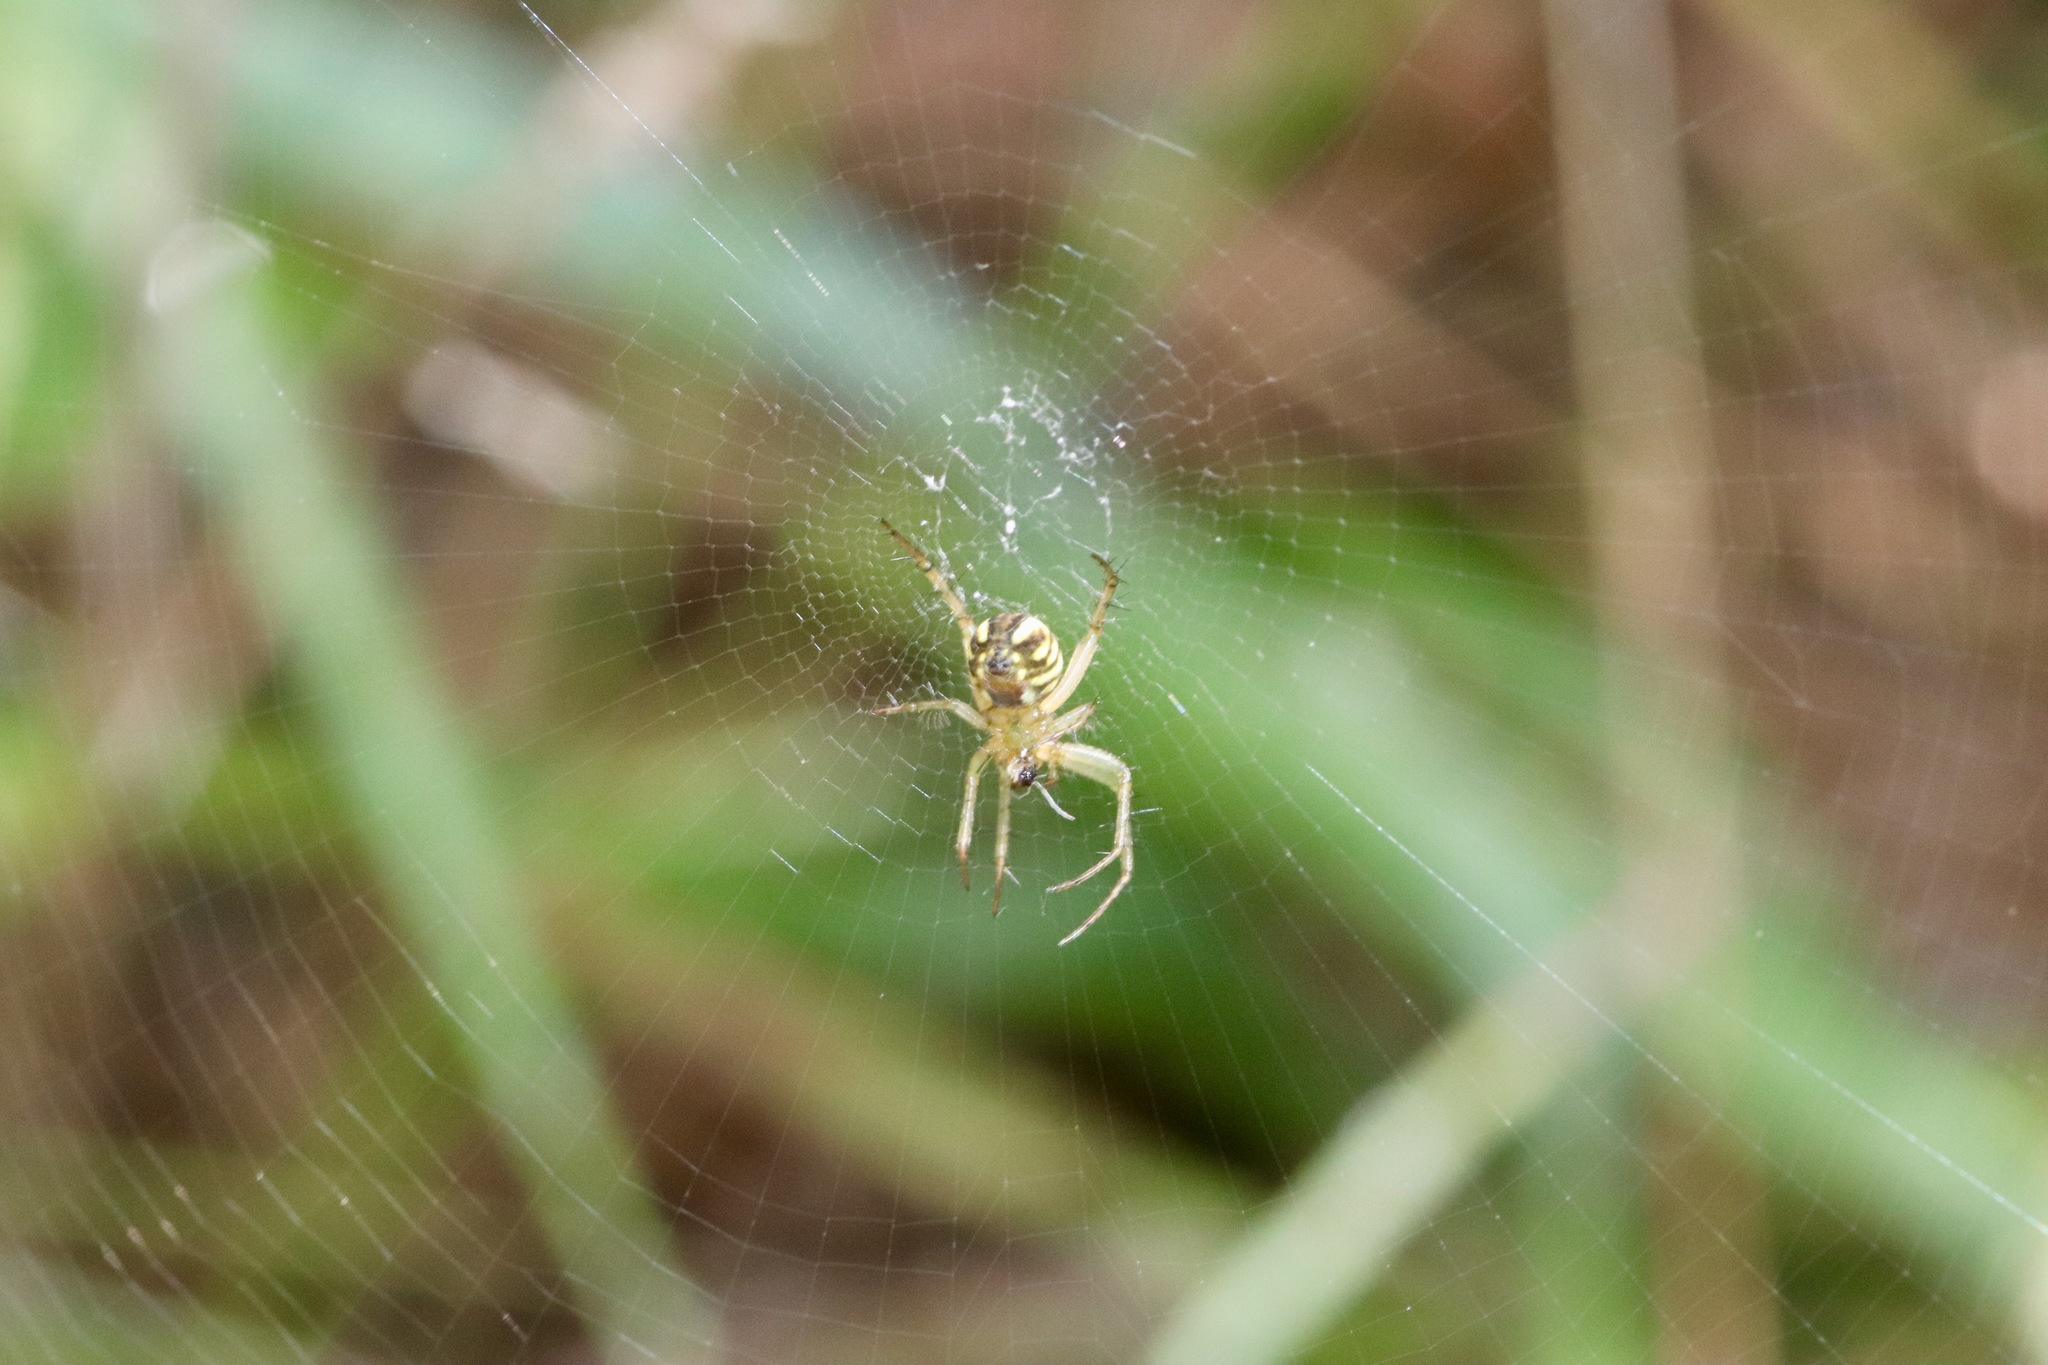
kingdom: Animalia
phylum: Arthropoda
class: Arachnida
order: Araneae
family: Araneidae
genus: Mangora
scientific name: Mangora gibberosa
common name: Lined orbweaver
